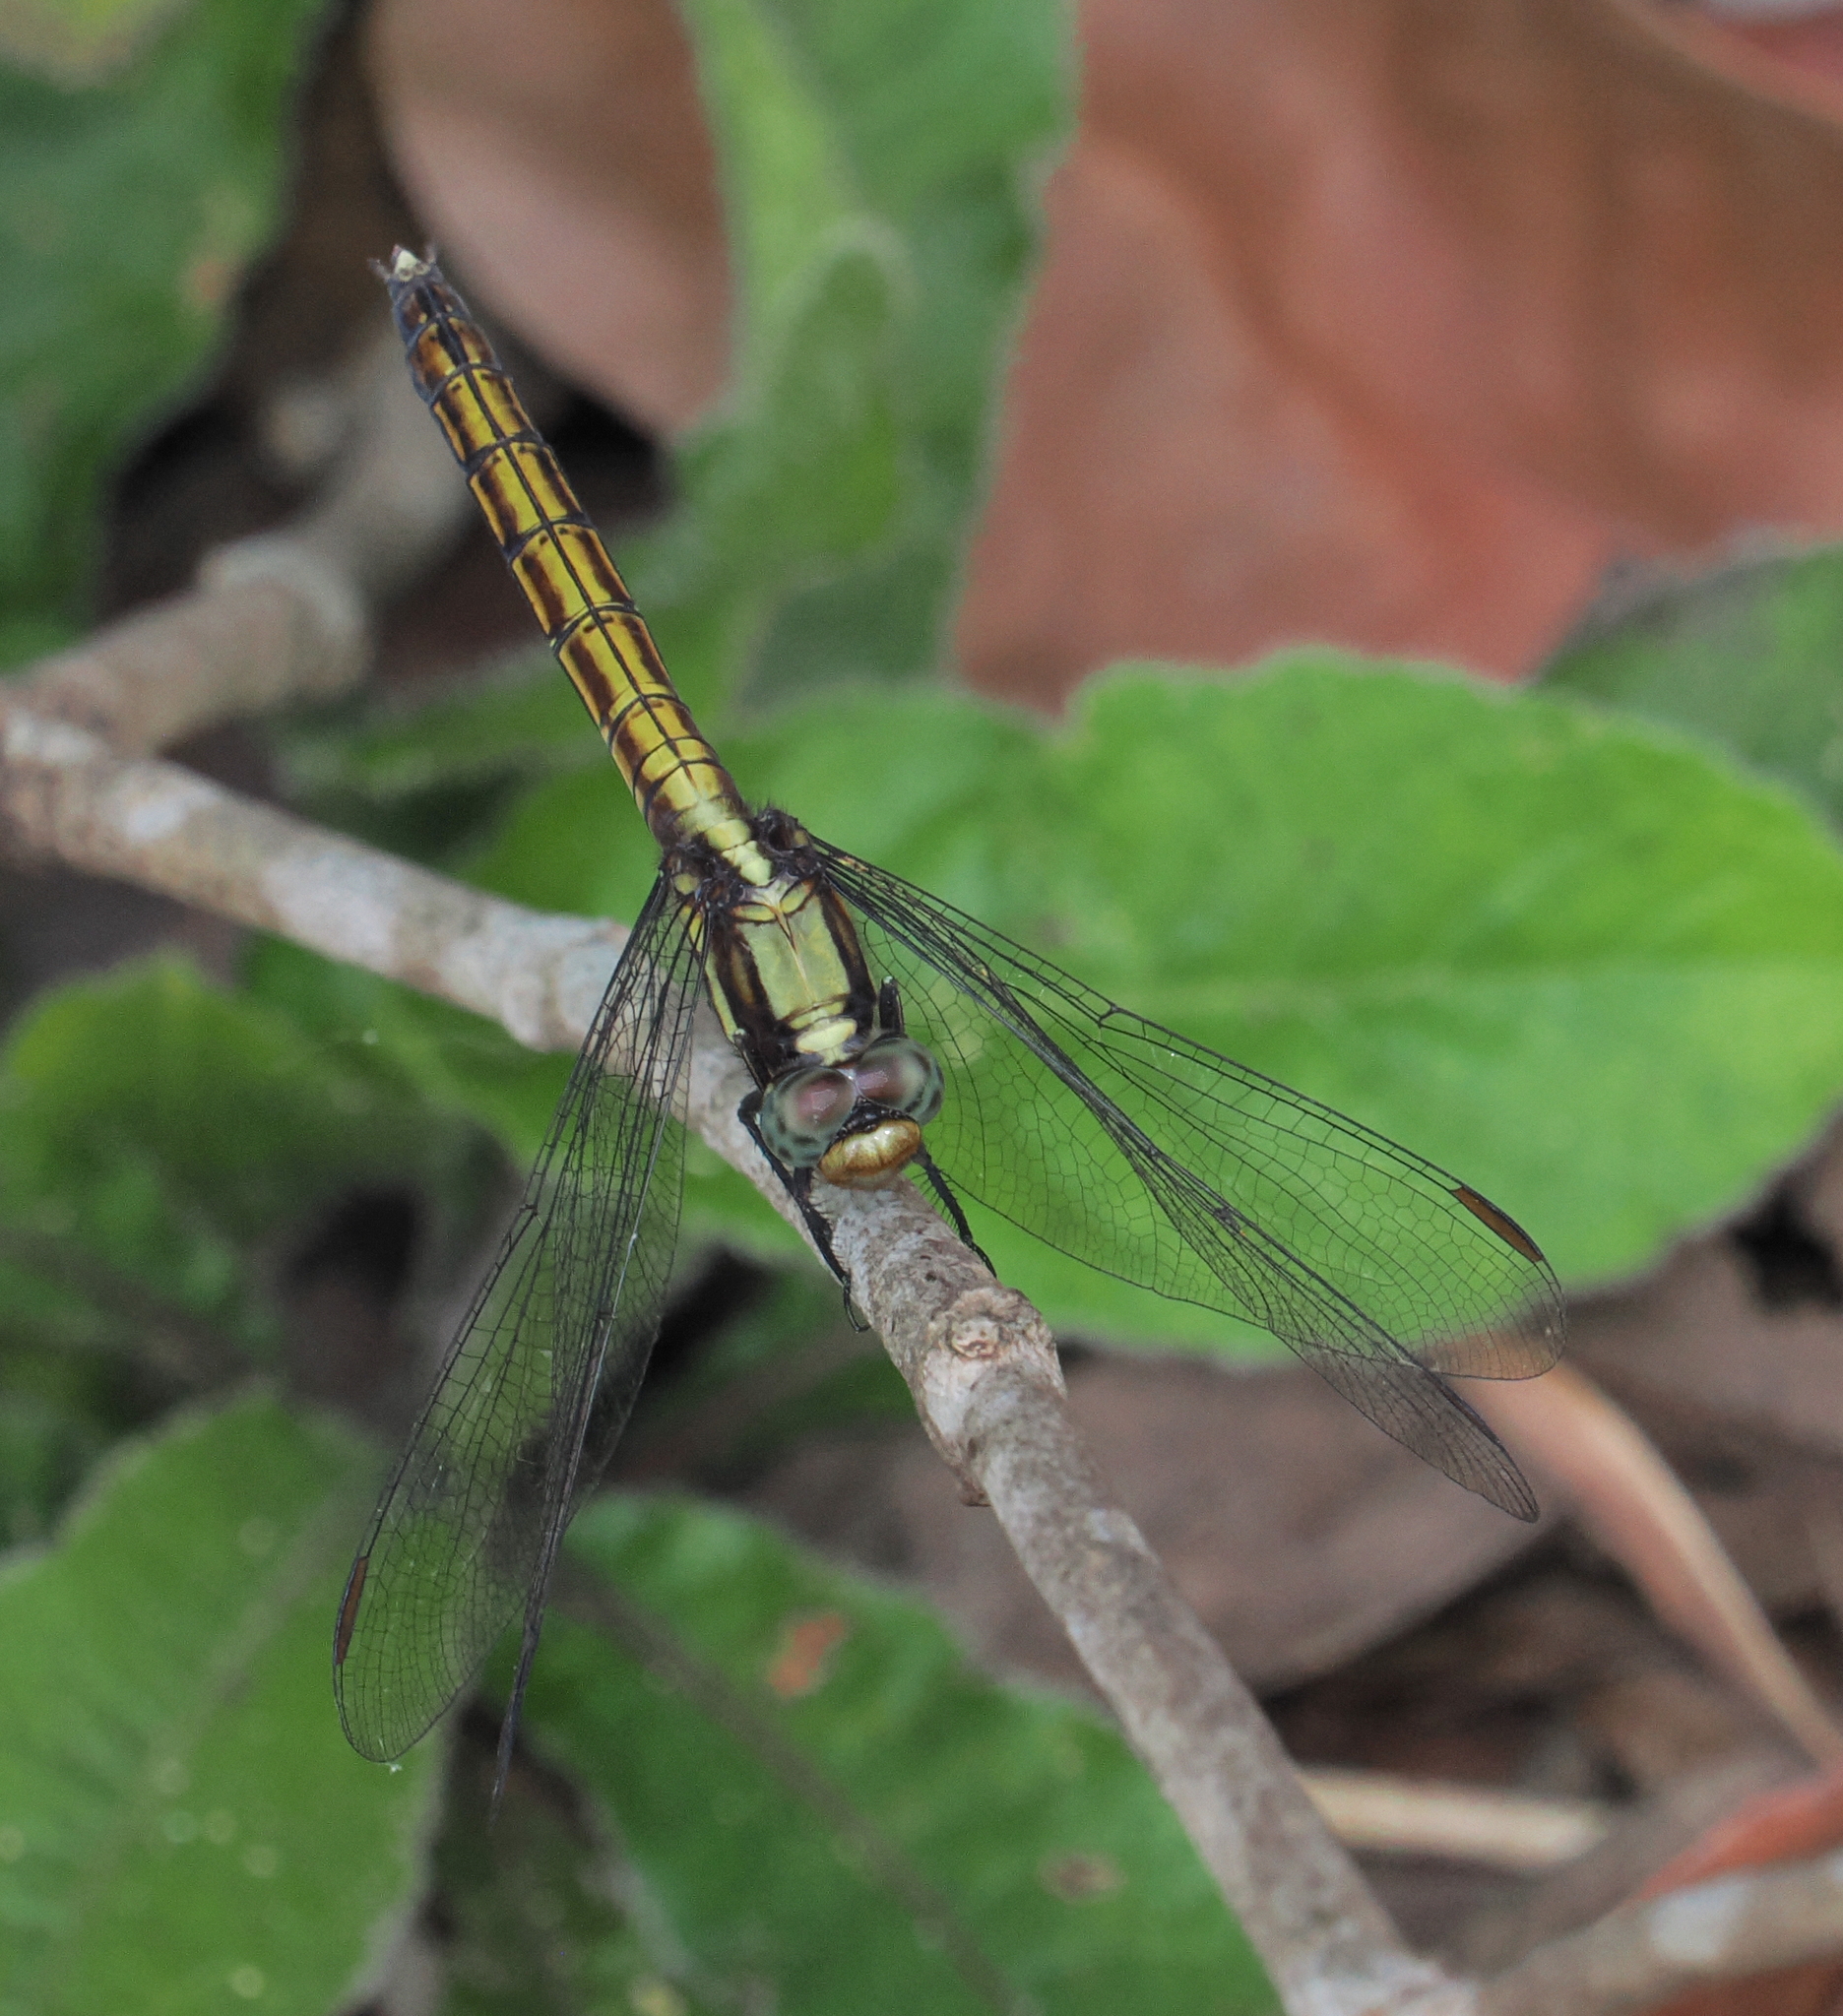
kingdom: Animalia
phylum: Arthropoda
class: Insecta
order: Odonata
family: Libellulidae
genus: Orthetrum
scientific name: Orthetrum glaucum
